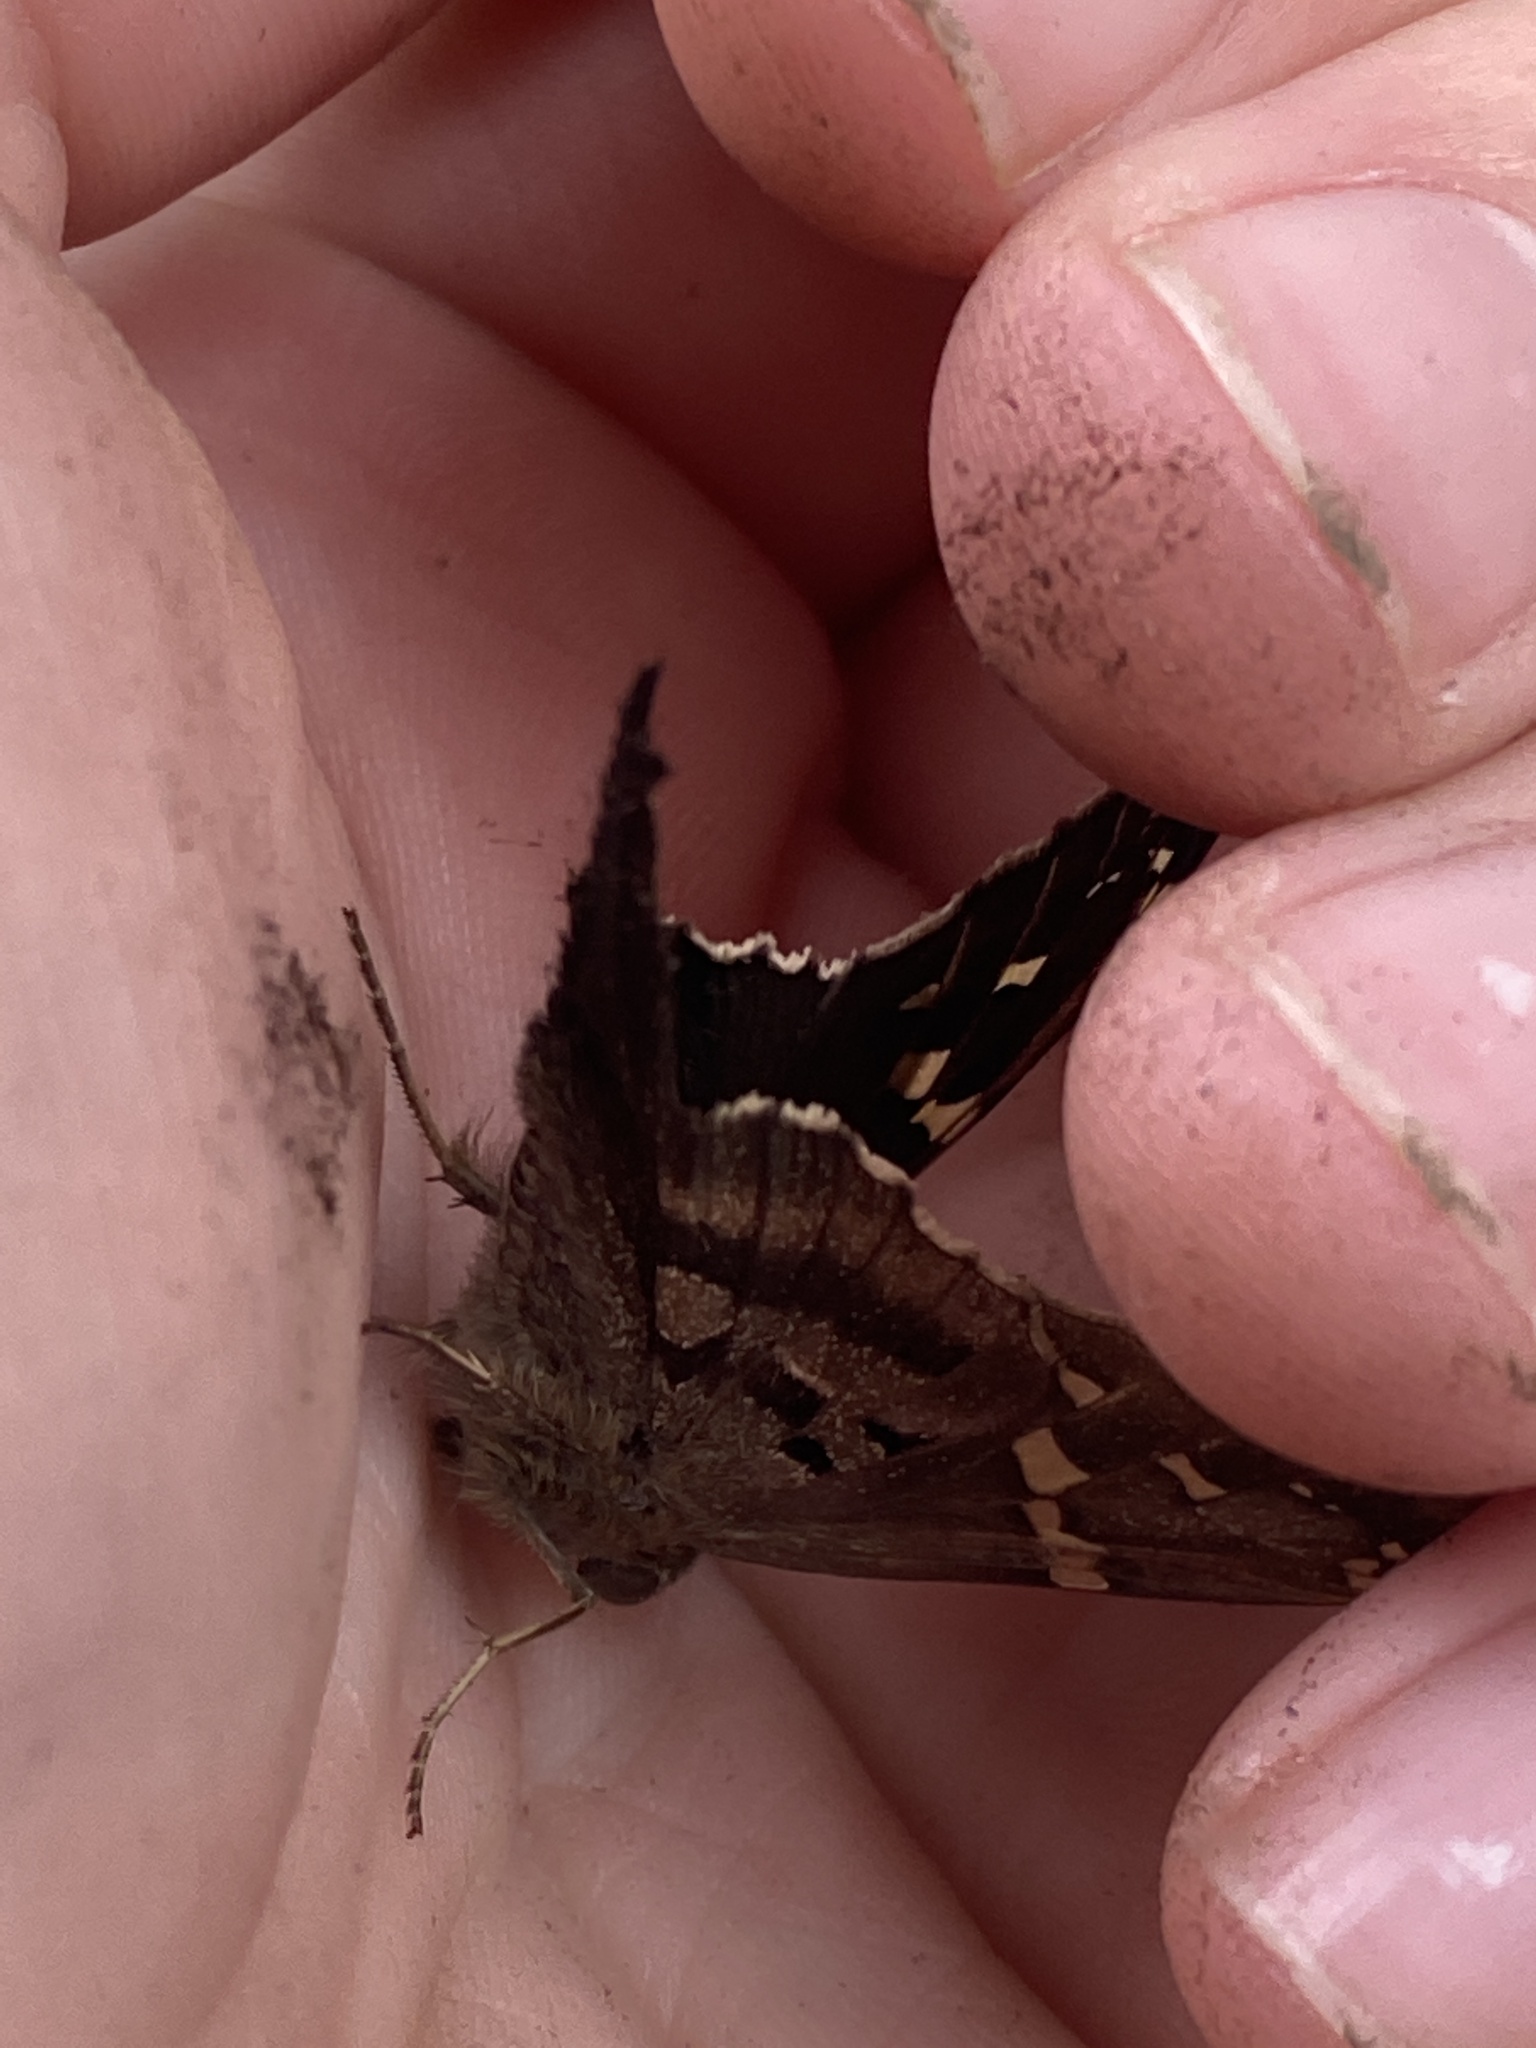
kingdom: Animalia
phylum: Arthropoda
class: Insecta
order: Lepidoptera
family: Hesperiidae
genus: Urbanus
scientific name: Urbanus proteus
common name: Long-tailed skipper
